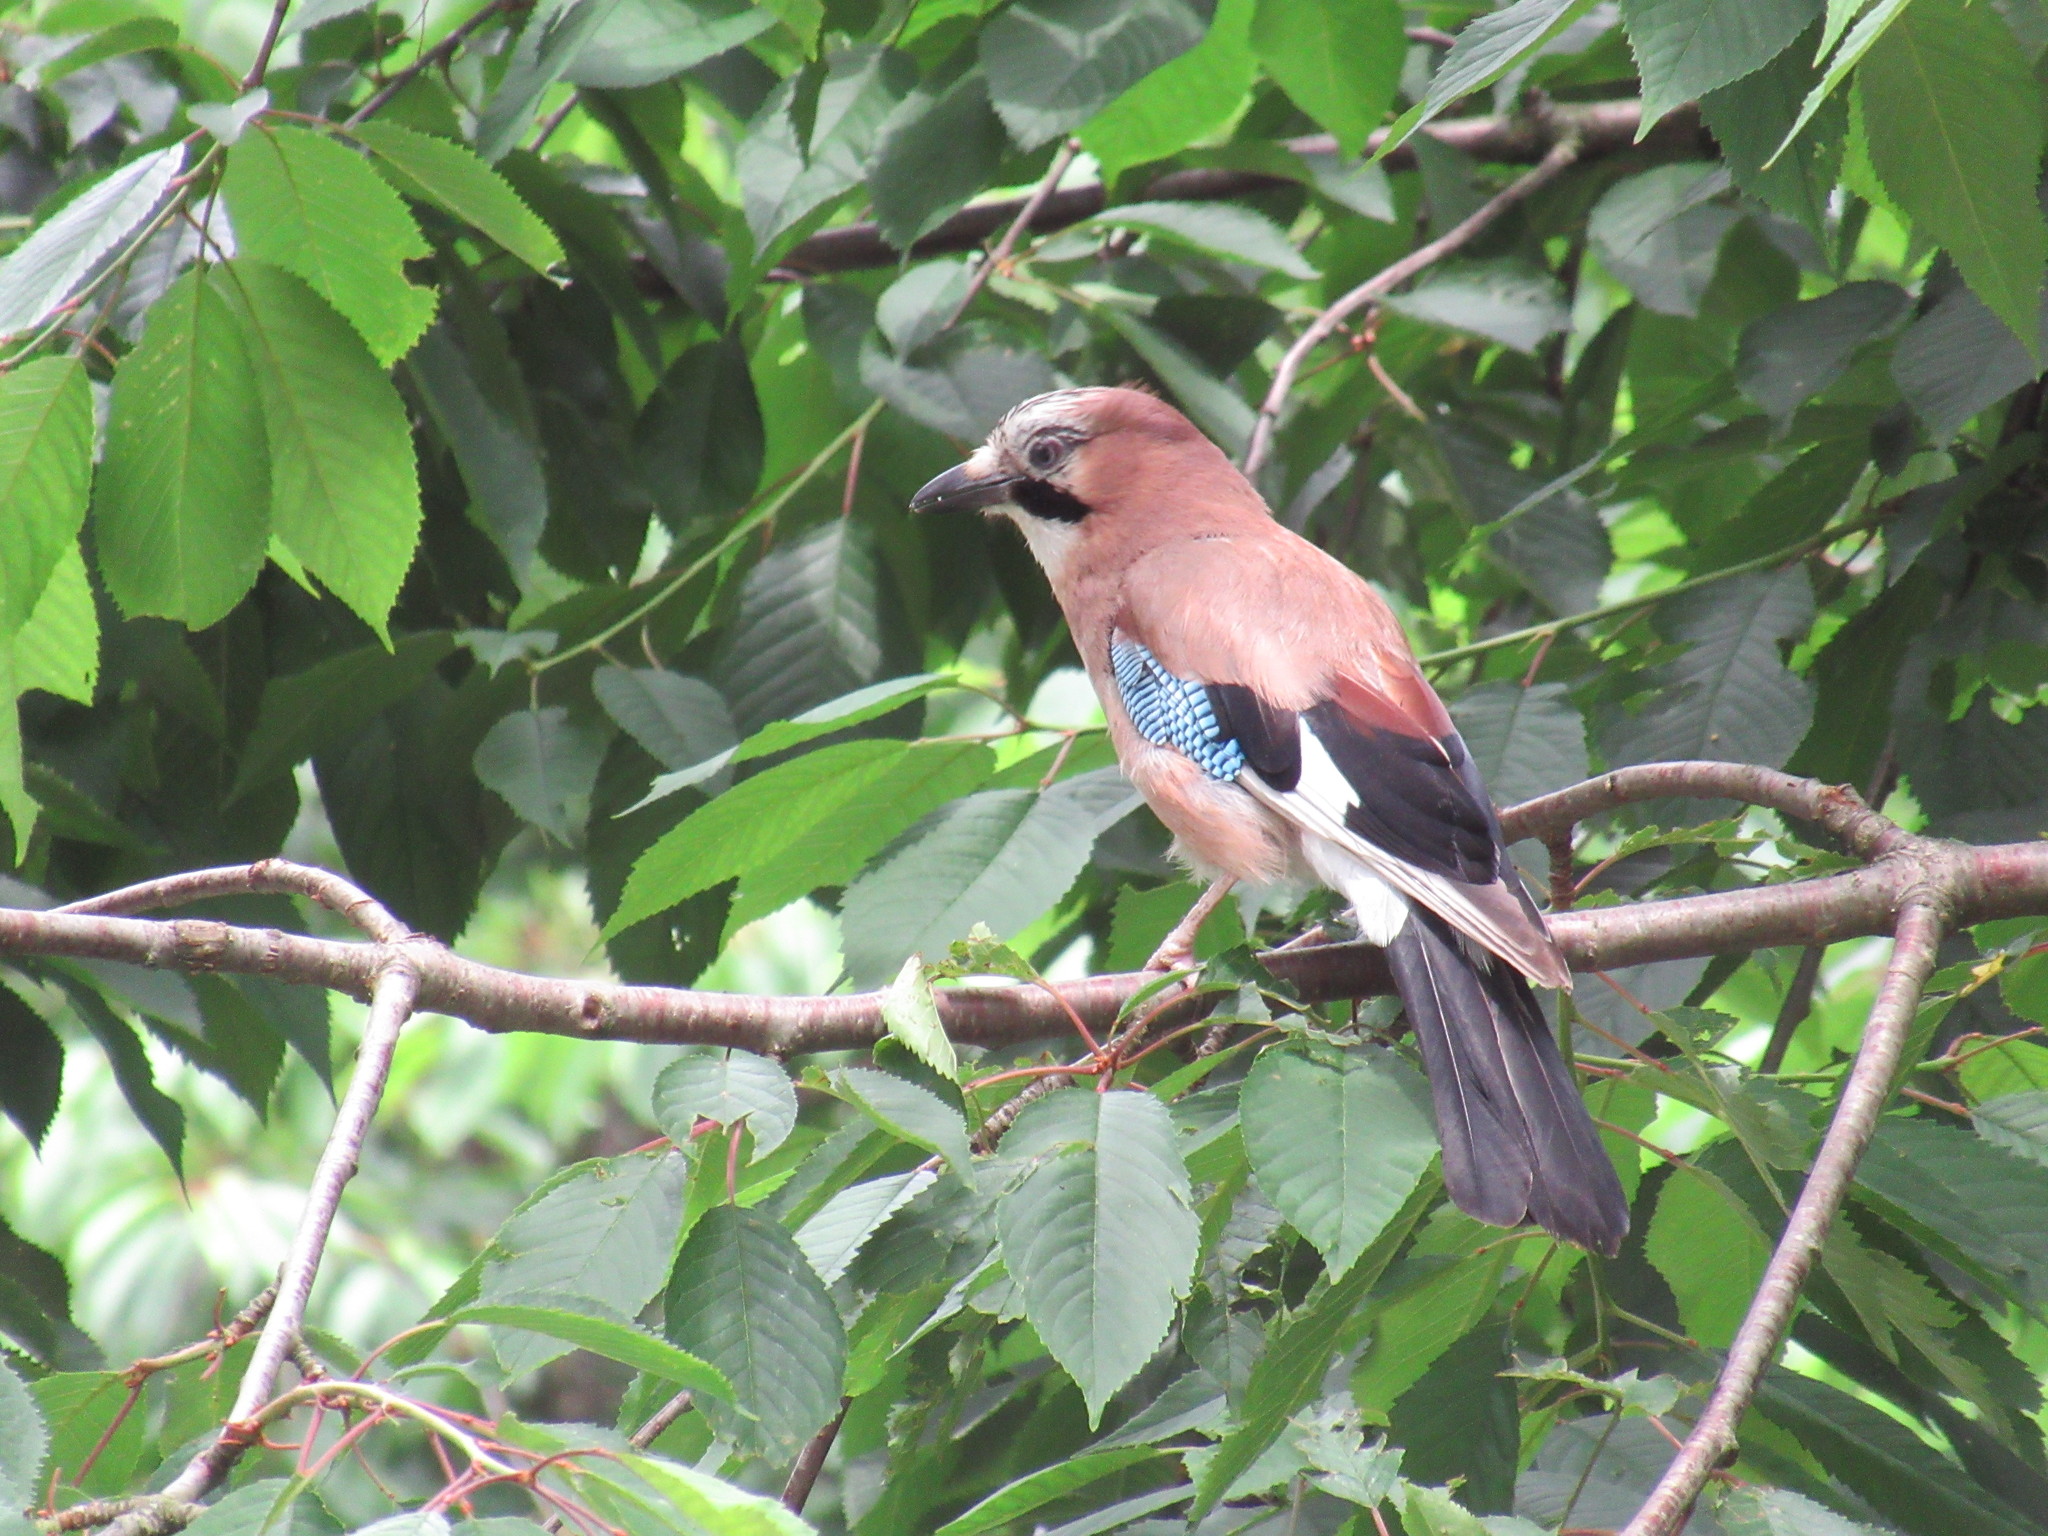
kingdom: Animalia
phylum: Chordata
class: Aves
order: Passeriformes
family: Corvidae
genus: Garrulus
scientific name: Garrulus glandarius
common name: Eurasian jay
